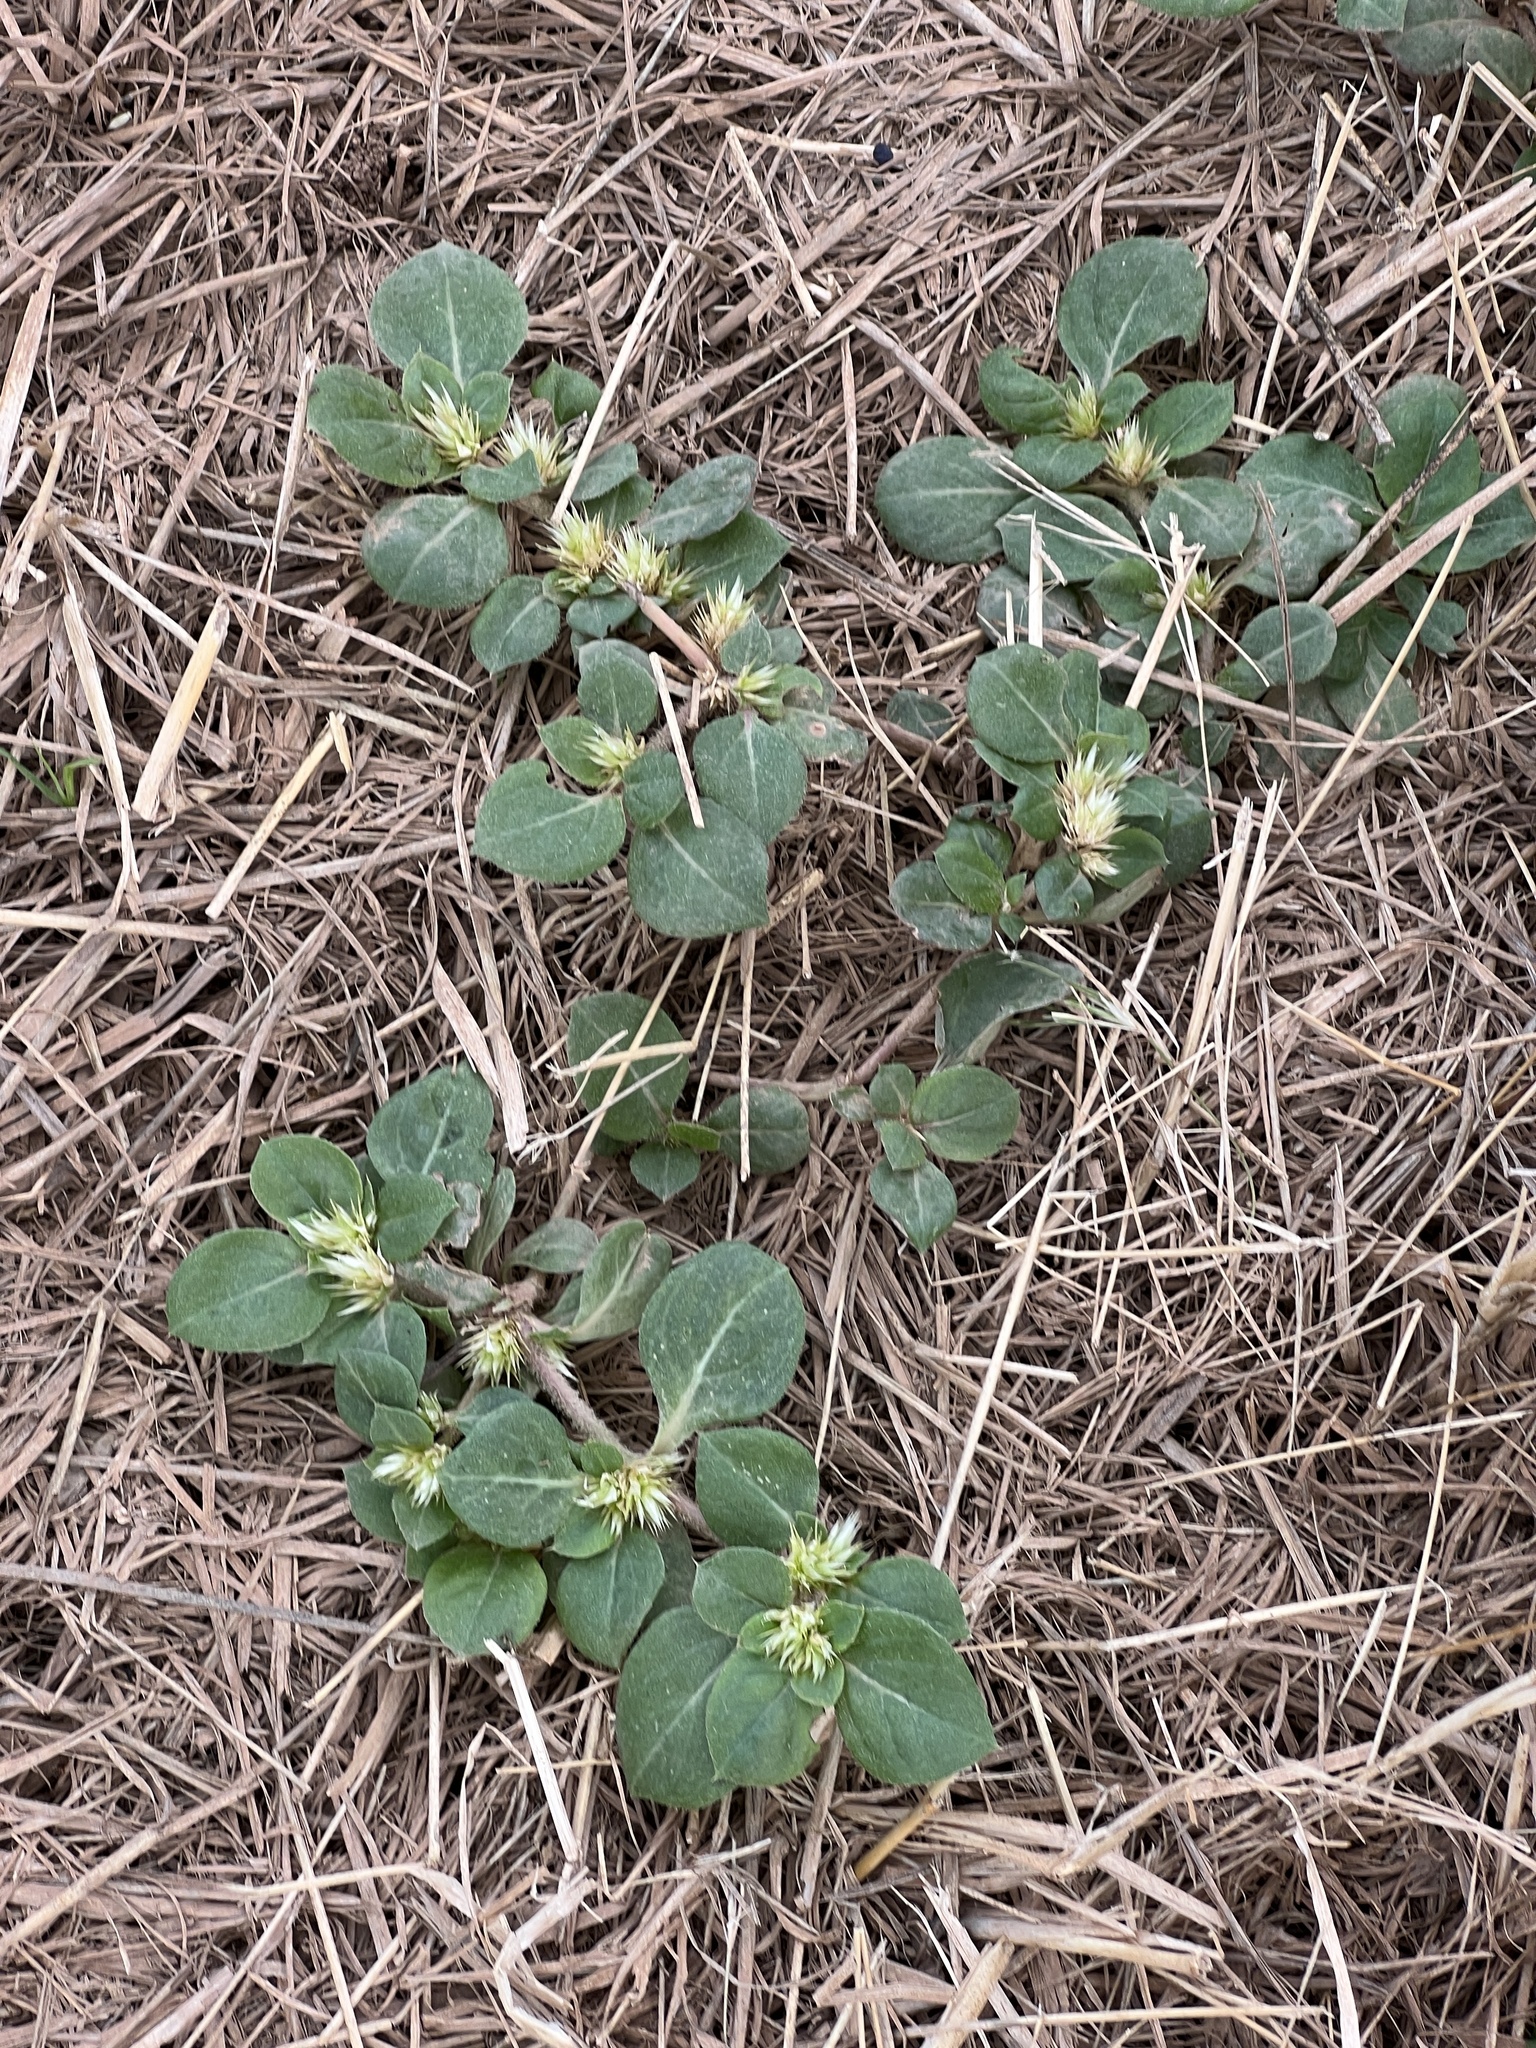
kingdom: Plantae
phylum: Tracheophyta
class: Magnoliopsida
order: Caryophyllales
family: Amaranthaceae
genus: Alternanthera
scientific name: Alternanthera pungens
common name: Khakiweed
